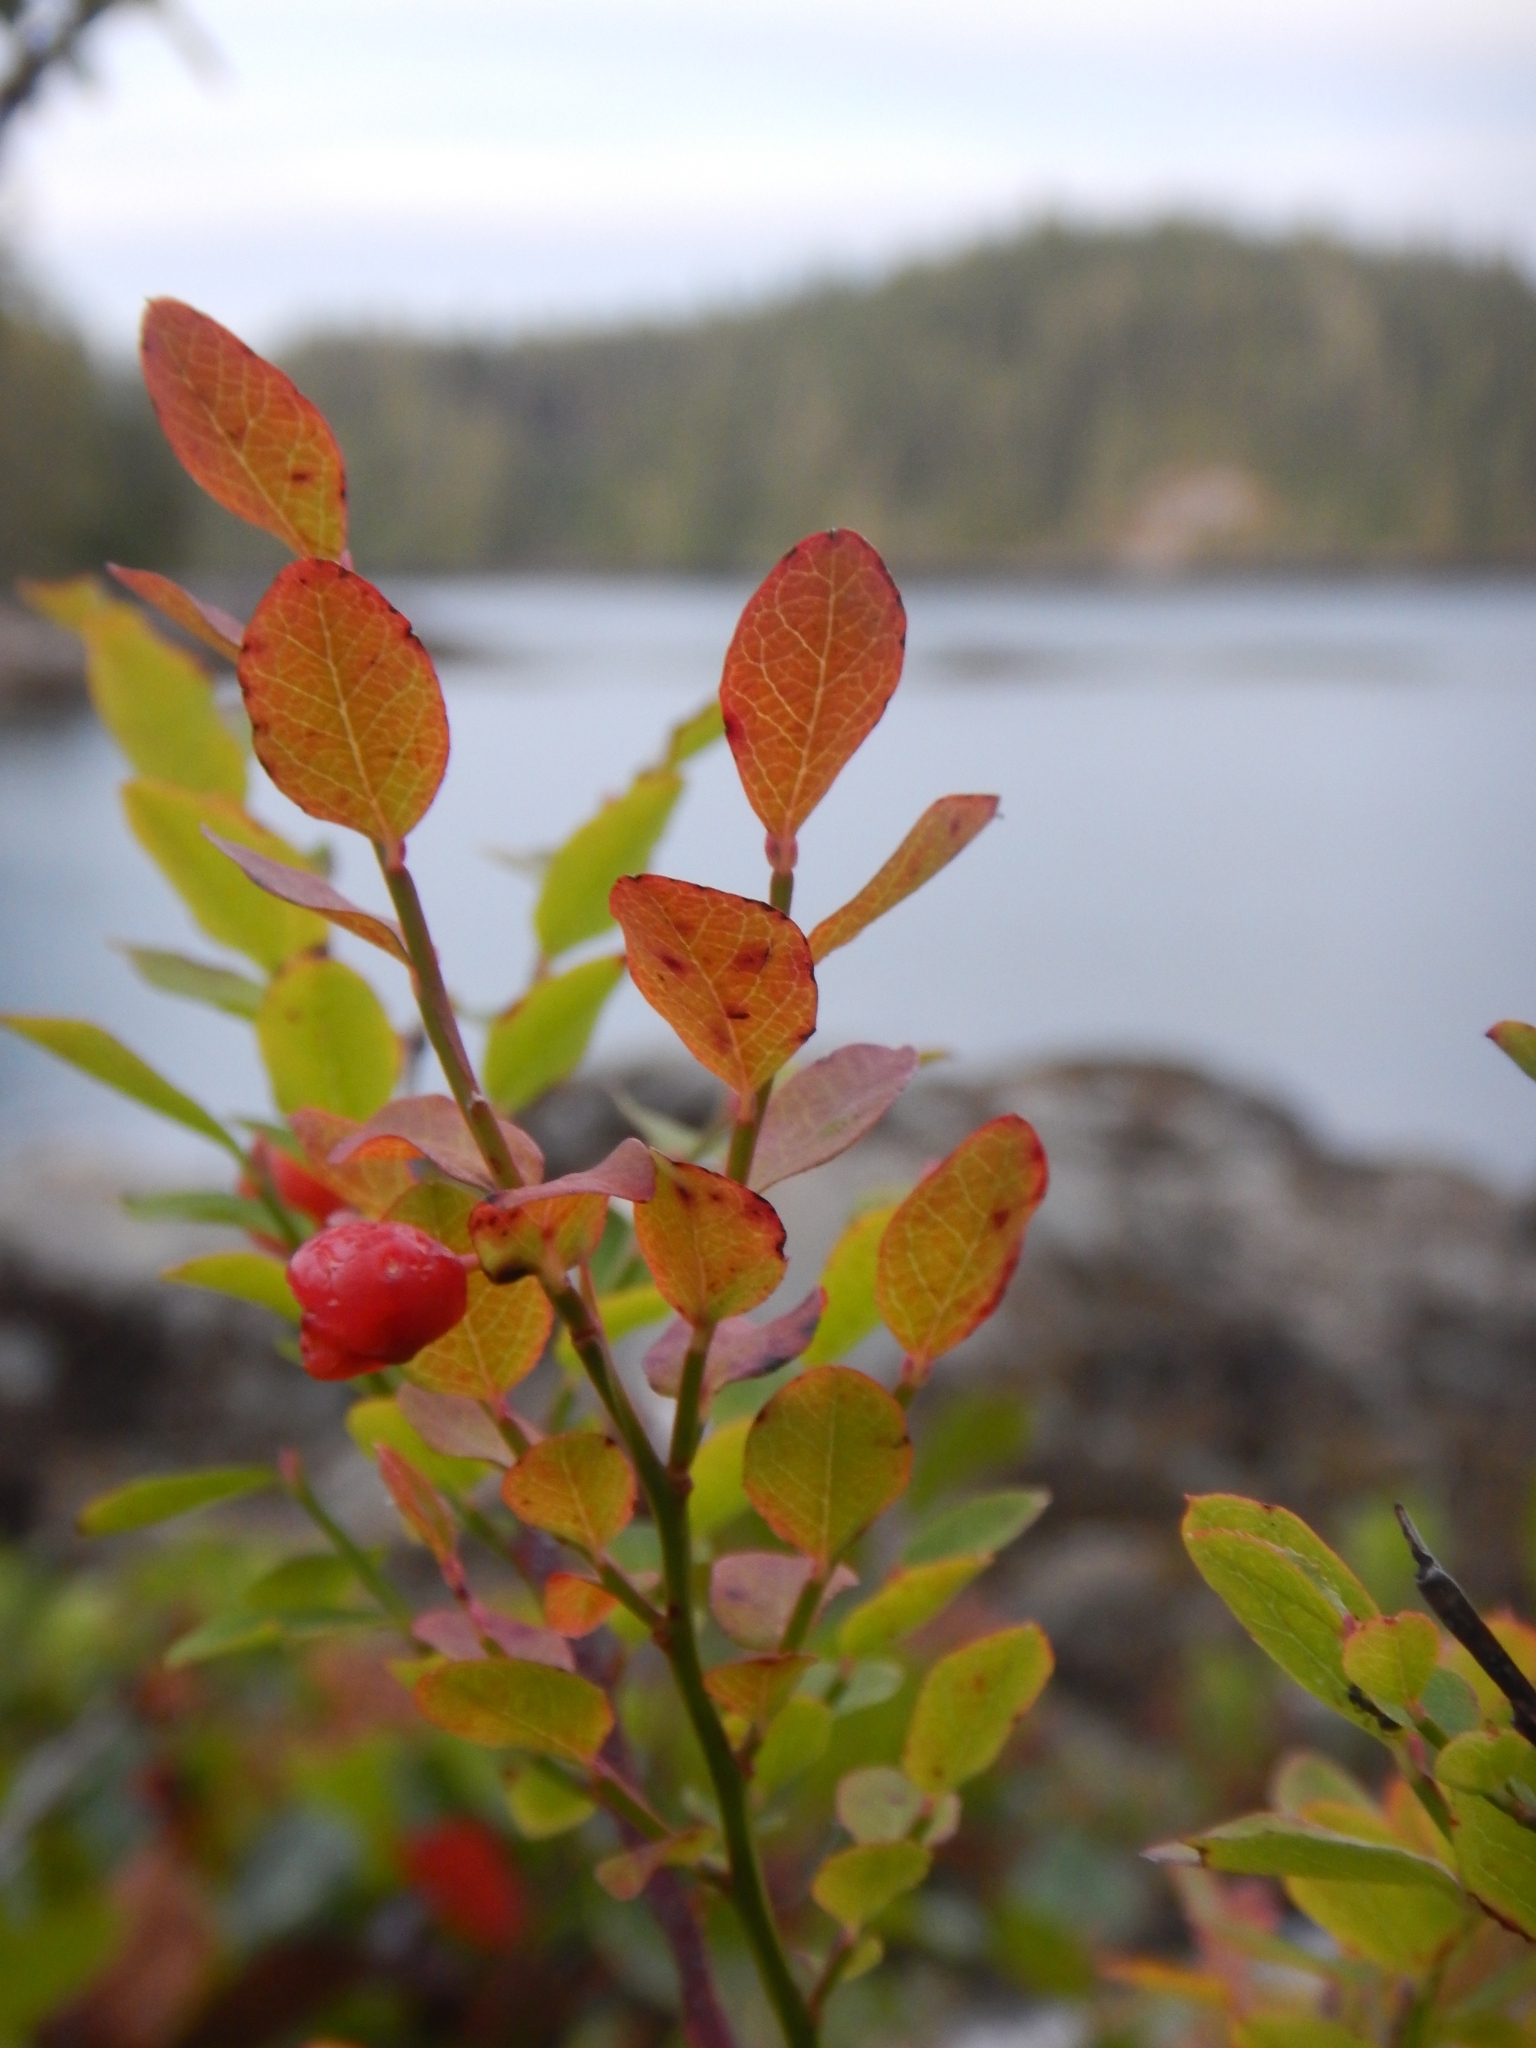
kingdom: Plantae
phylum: Tracheophyta
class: Magnoliopsida
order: Ericales
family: Ericaceae
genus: Vaccinium
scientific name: Vaccinium parvifolium
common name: Red-huckleberry
